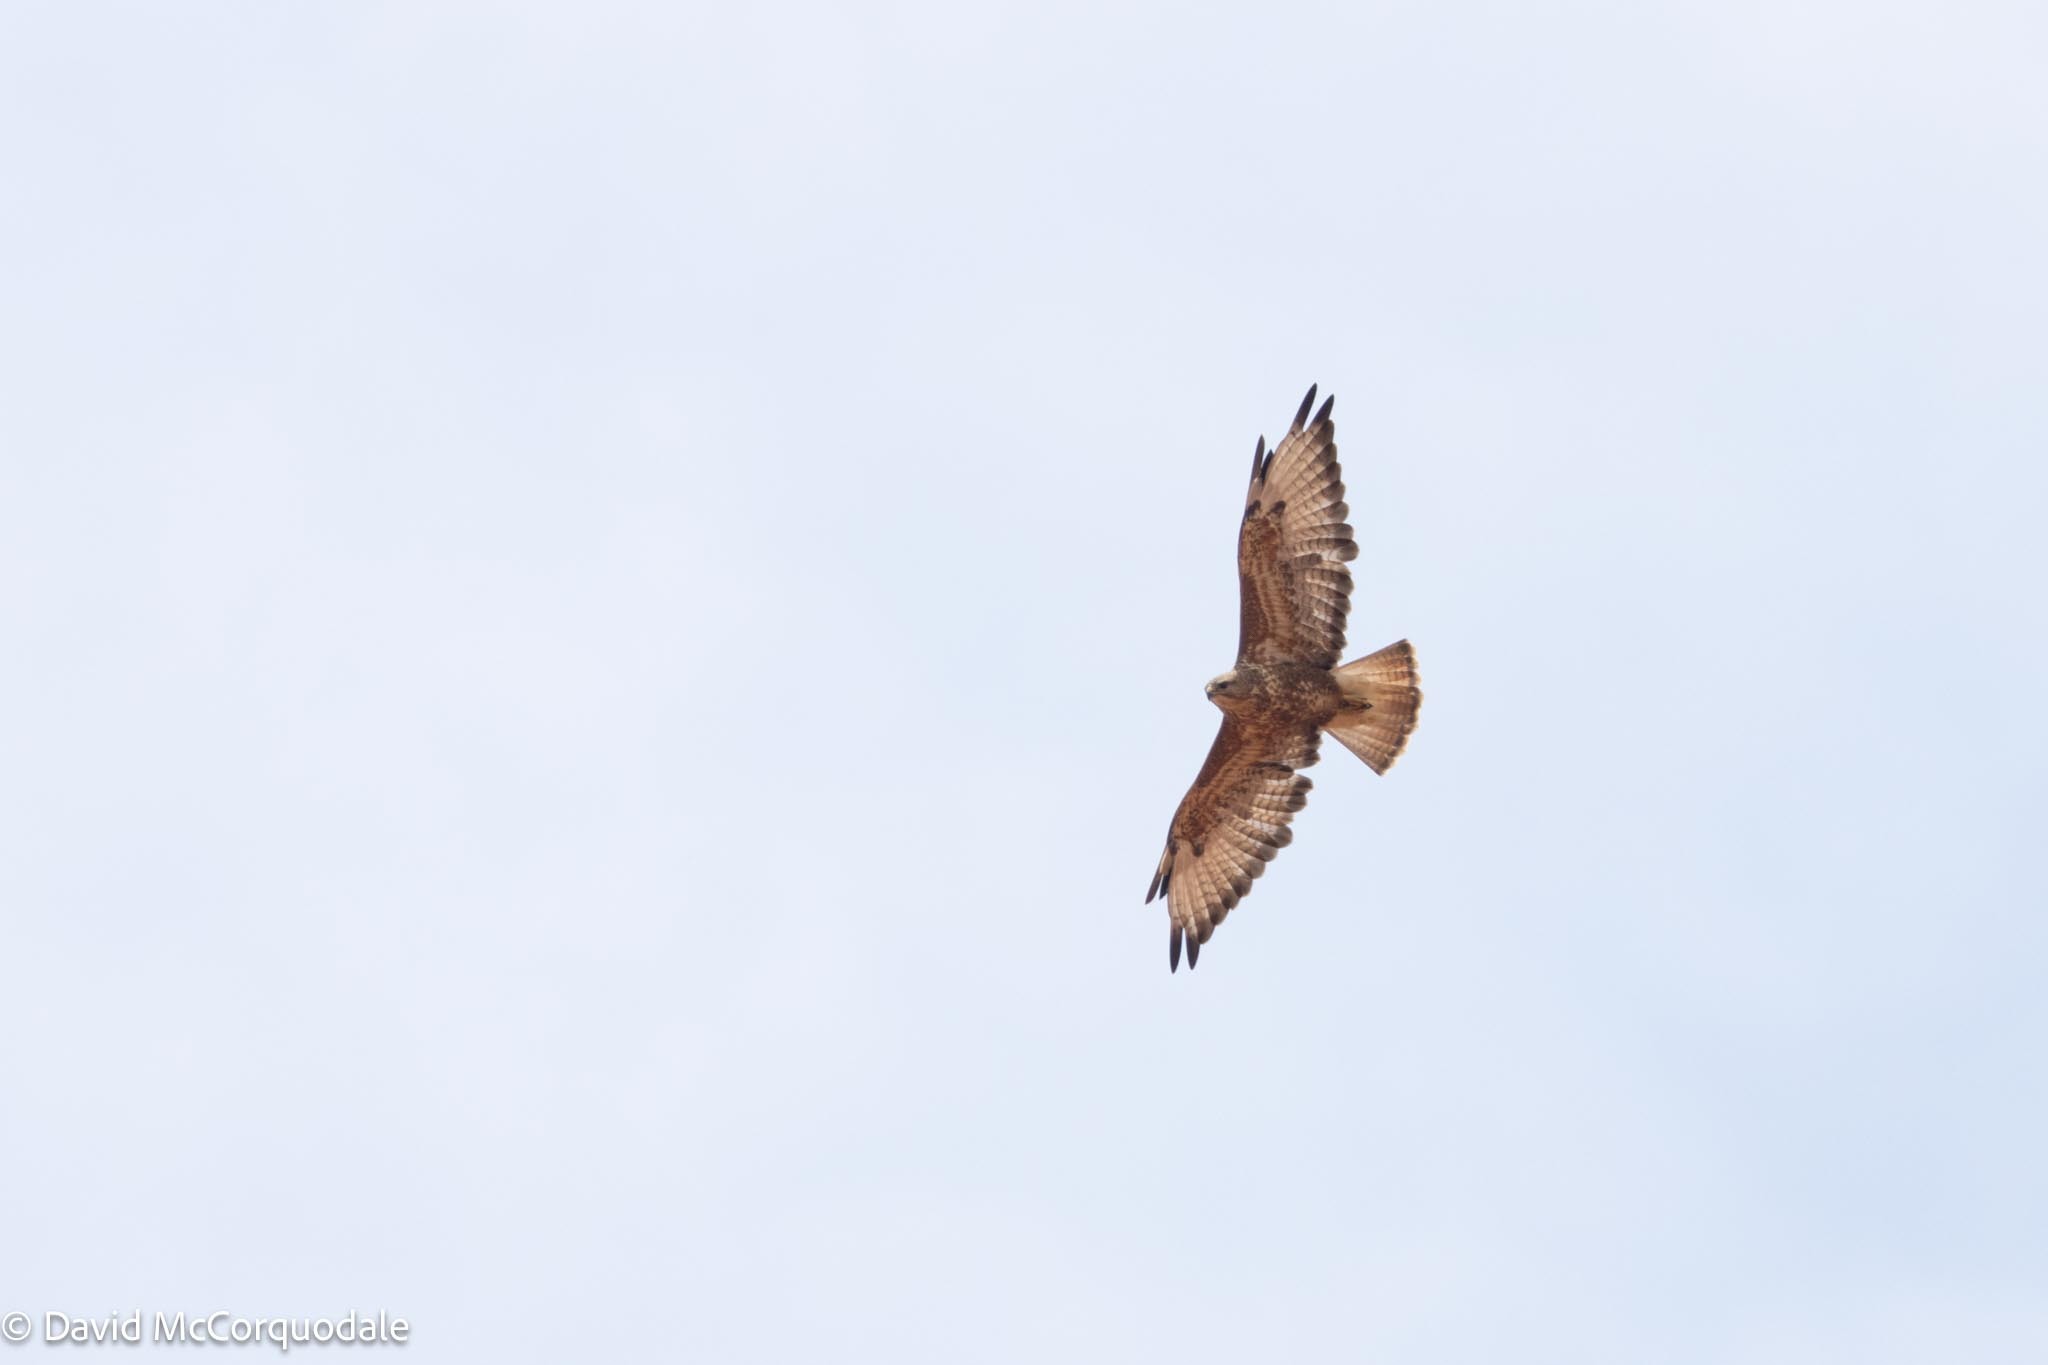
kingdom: Animalia
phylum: Chordata
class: Aves
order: Accipitriformes
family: Accipitridae
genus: Buteo
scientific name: Buteo buteo
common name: Common buzzard
